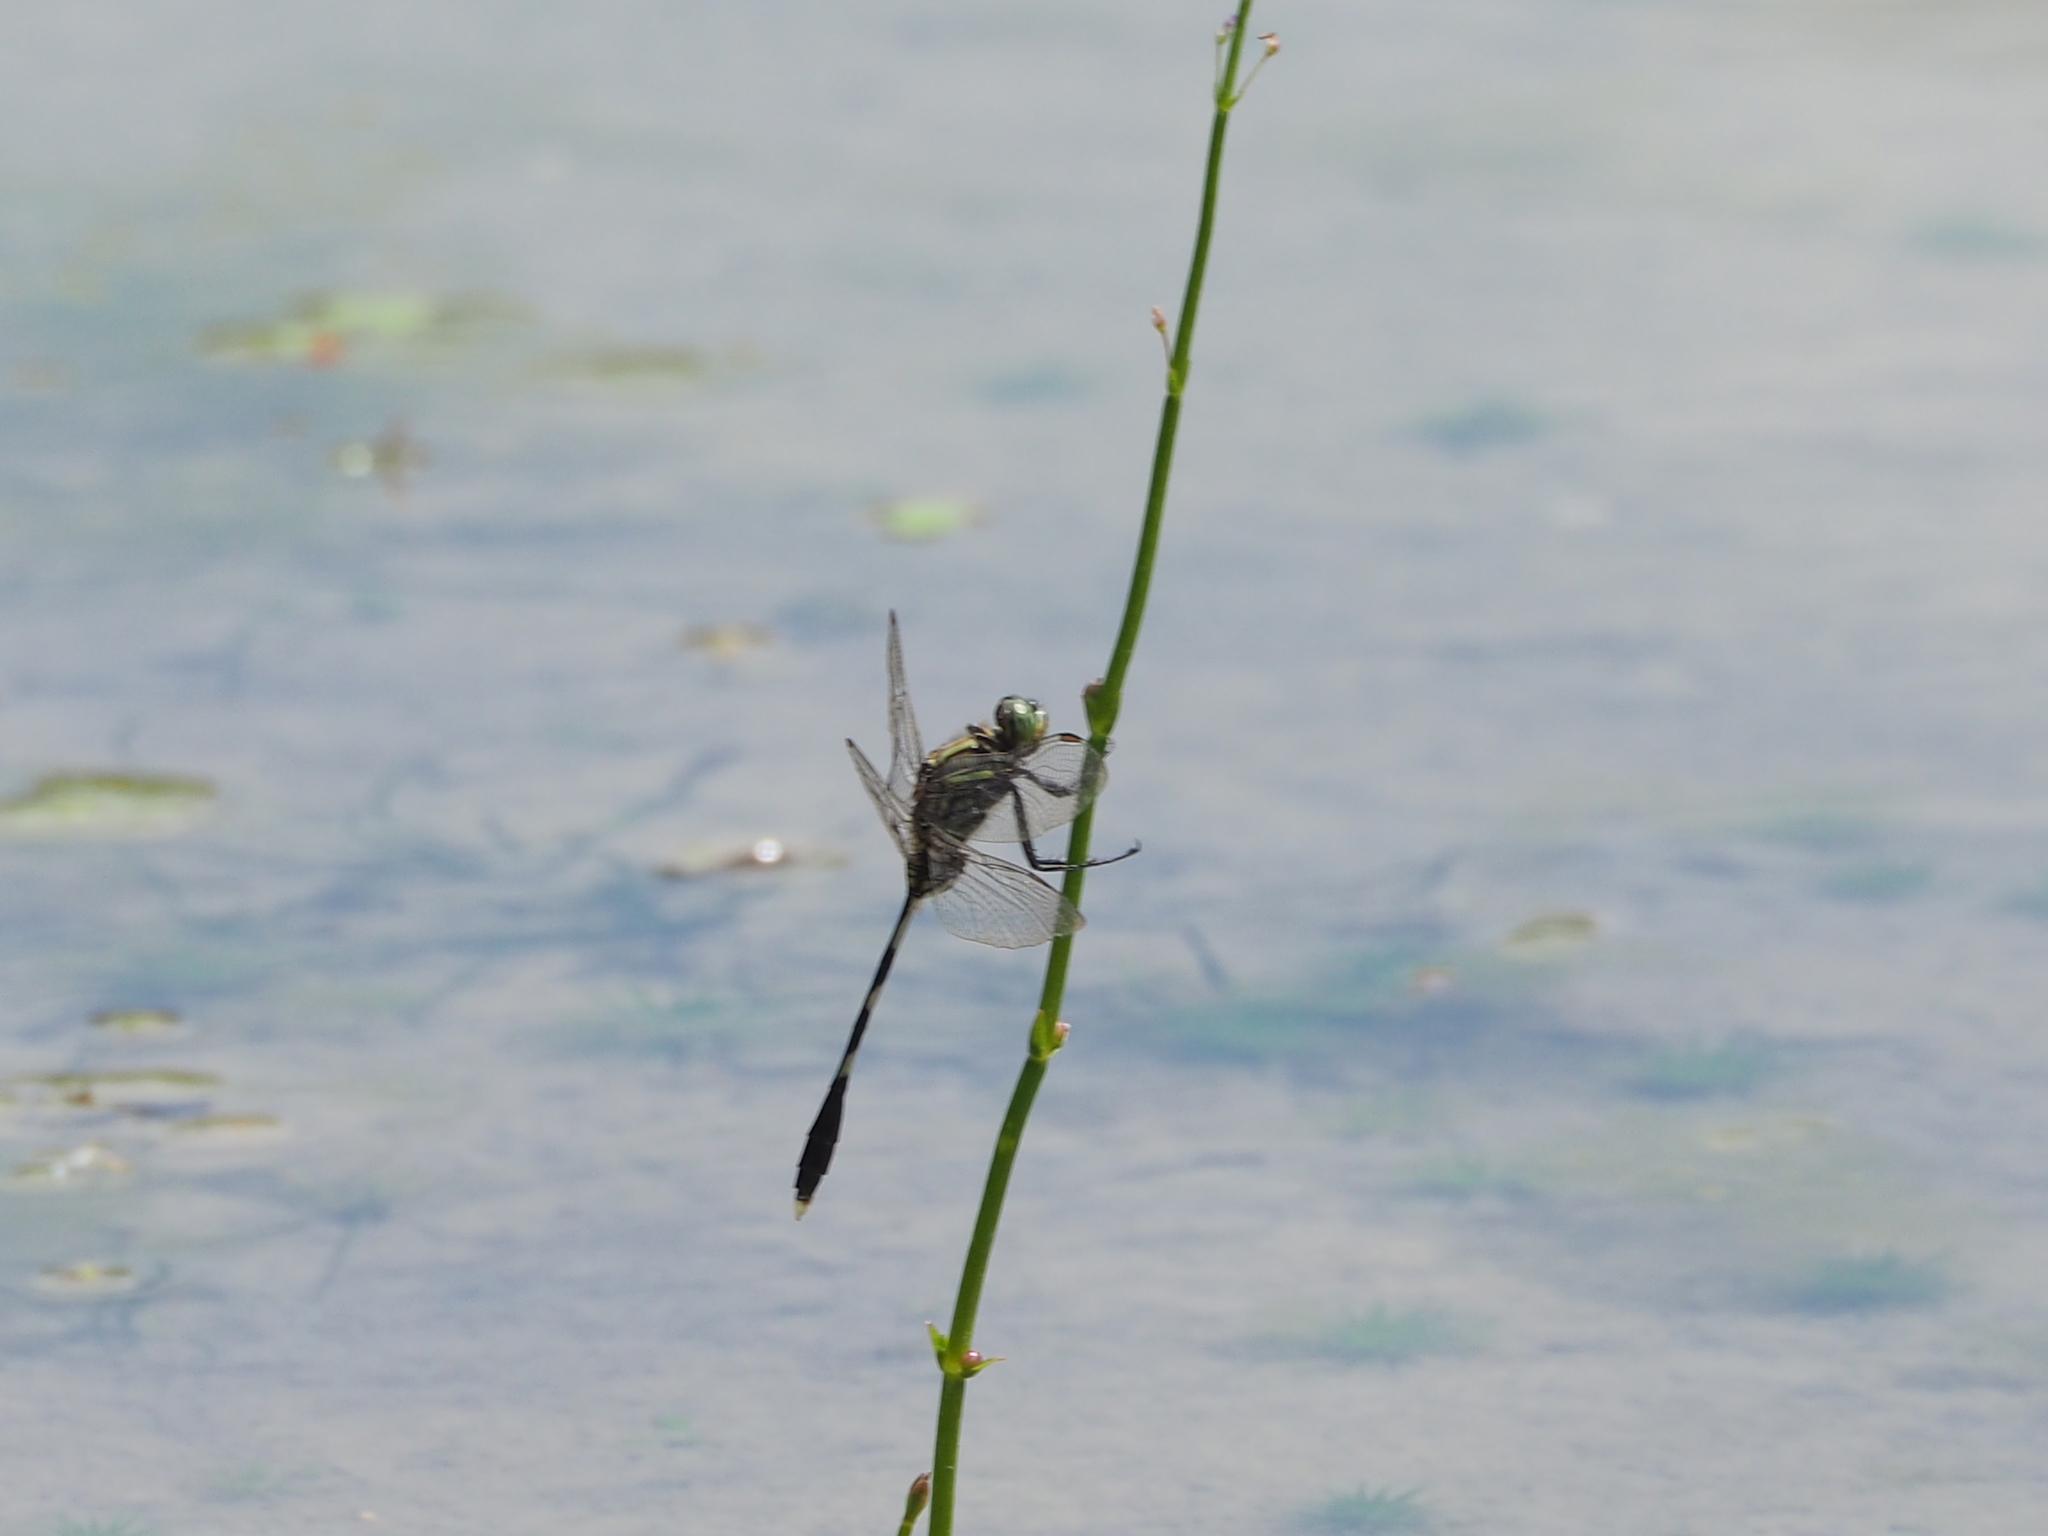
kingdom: Animalia
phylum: Arthropoda
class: Insecta
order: Odonata
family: Libellulidae
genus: Orthetrum
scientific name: Orthetrum sabina
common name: Slender skimmer
